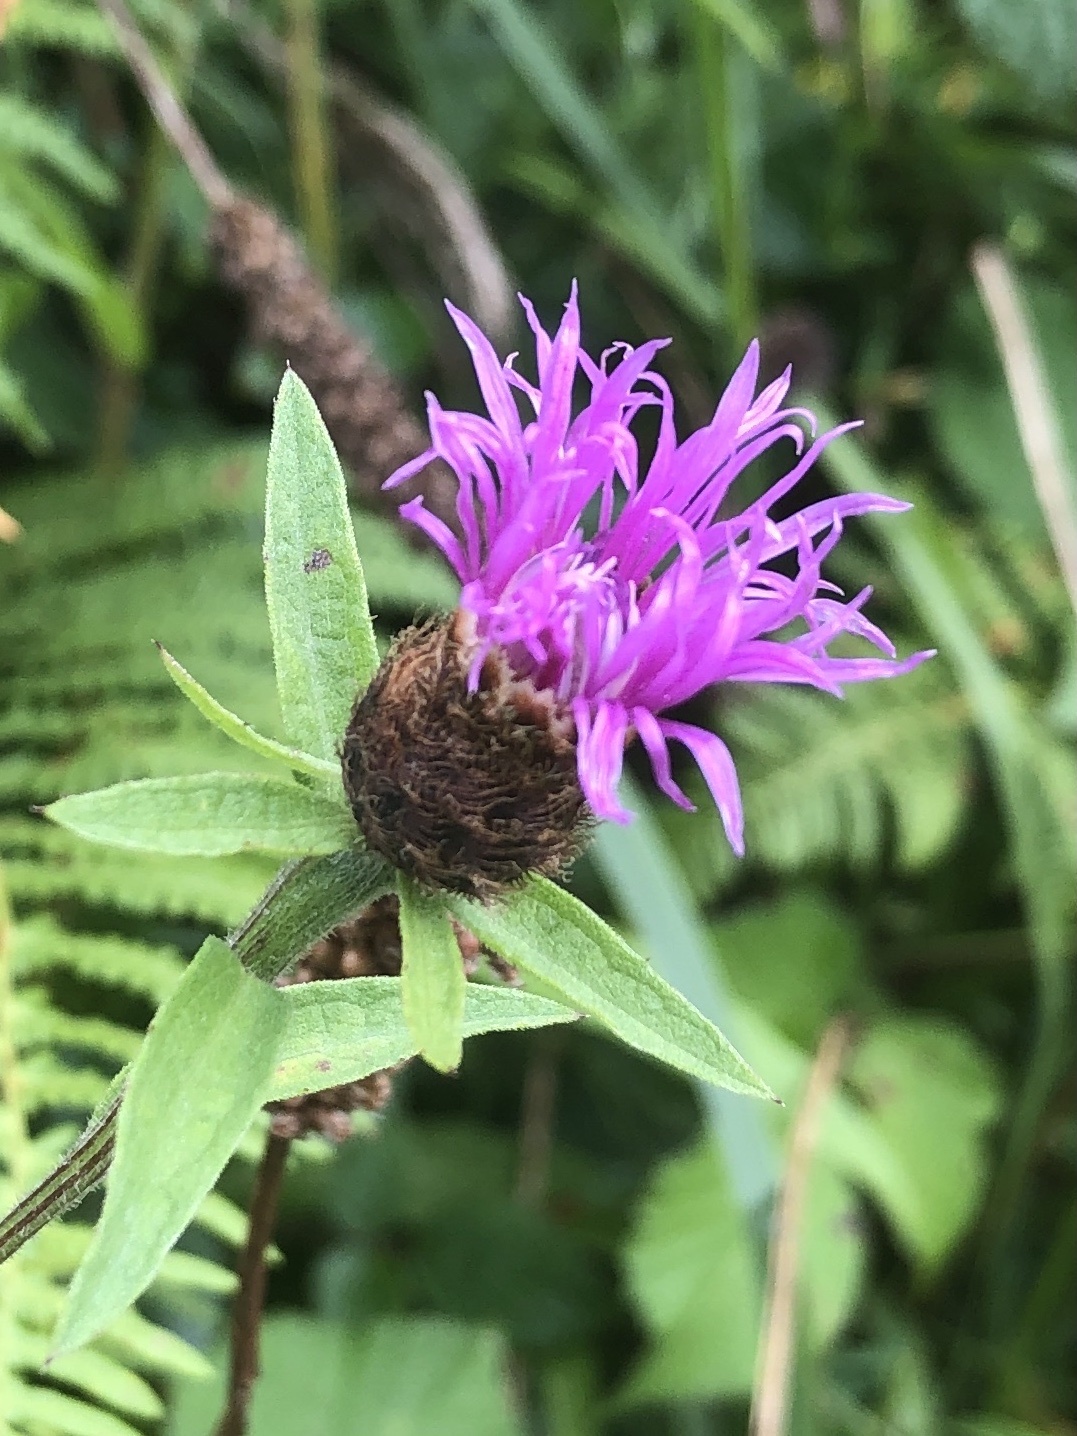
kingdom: Plantae
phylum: Tracheophyta
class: Magnoliopsida
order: Asterales
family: Asteraceae
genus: Centaurea
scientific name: Centaurea nigra
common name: Lesser knapweed
